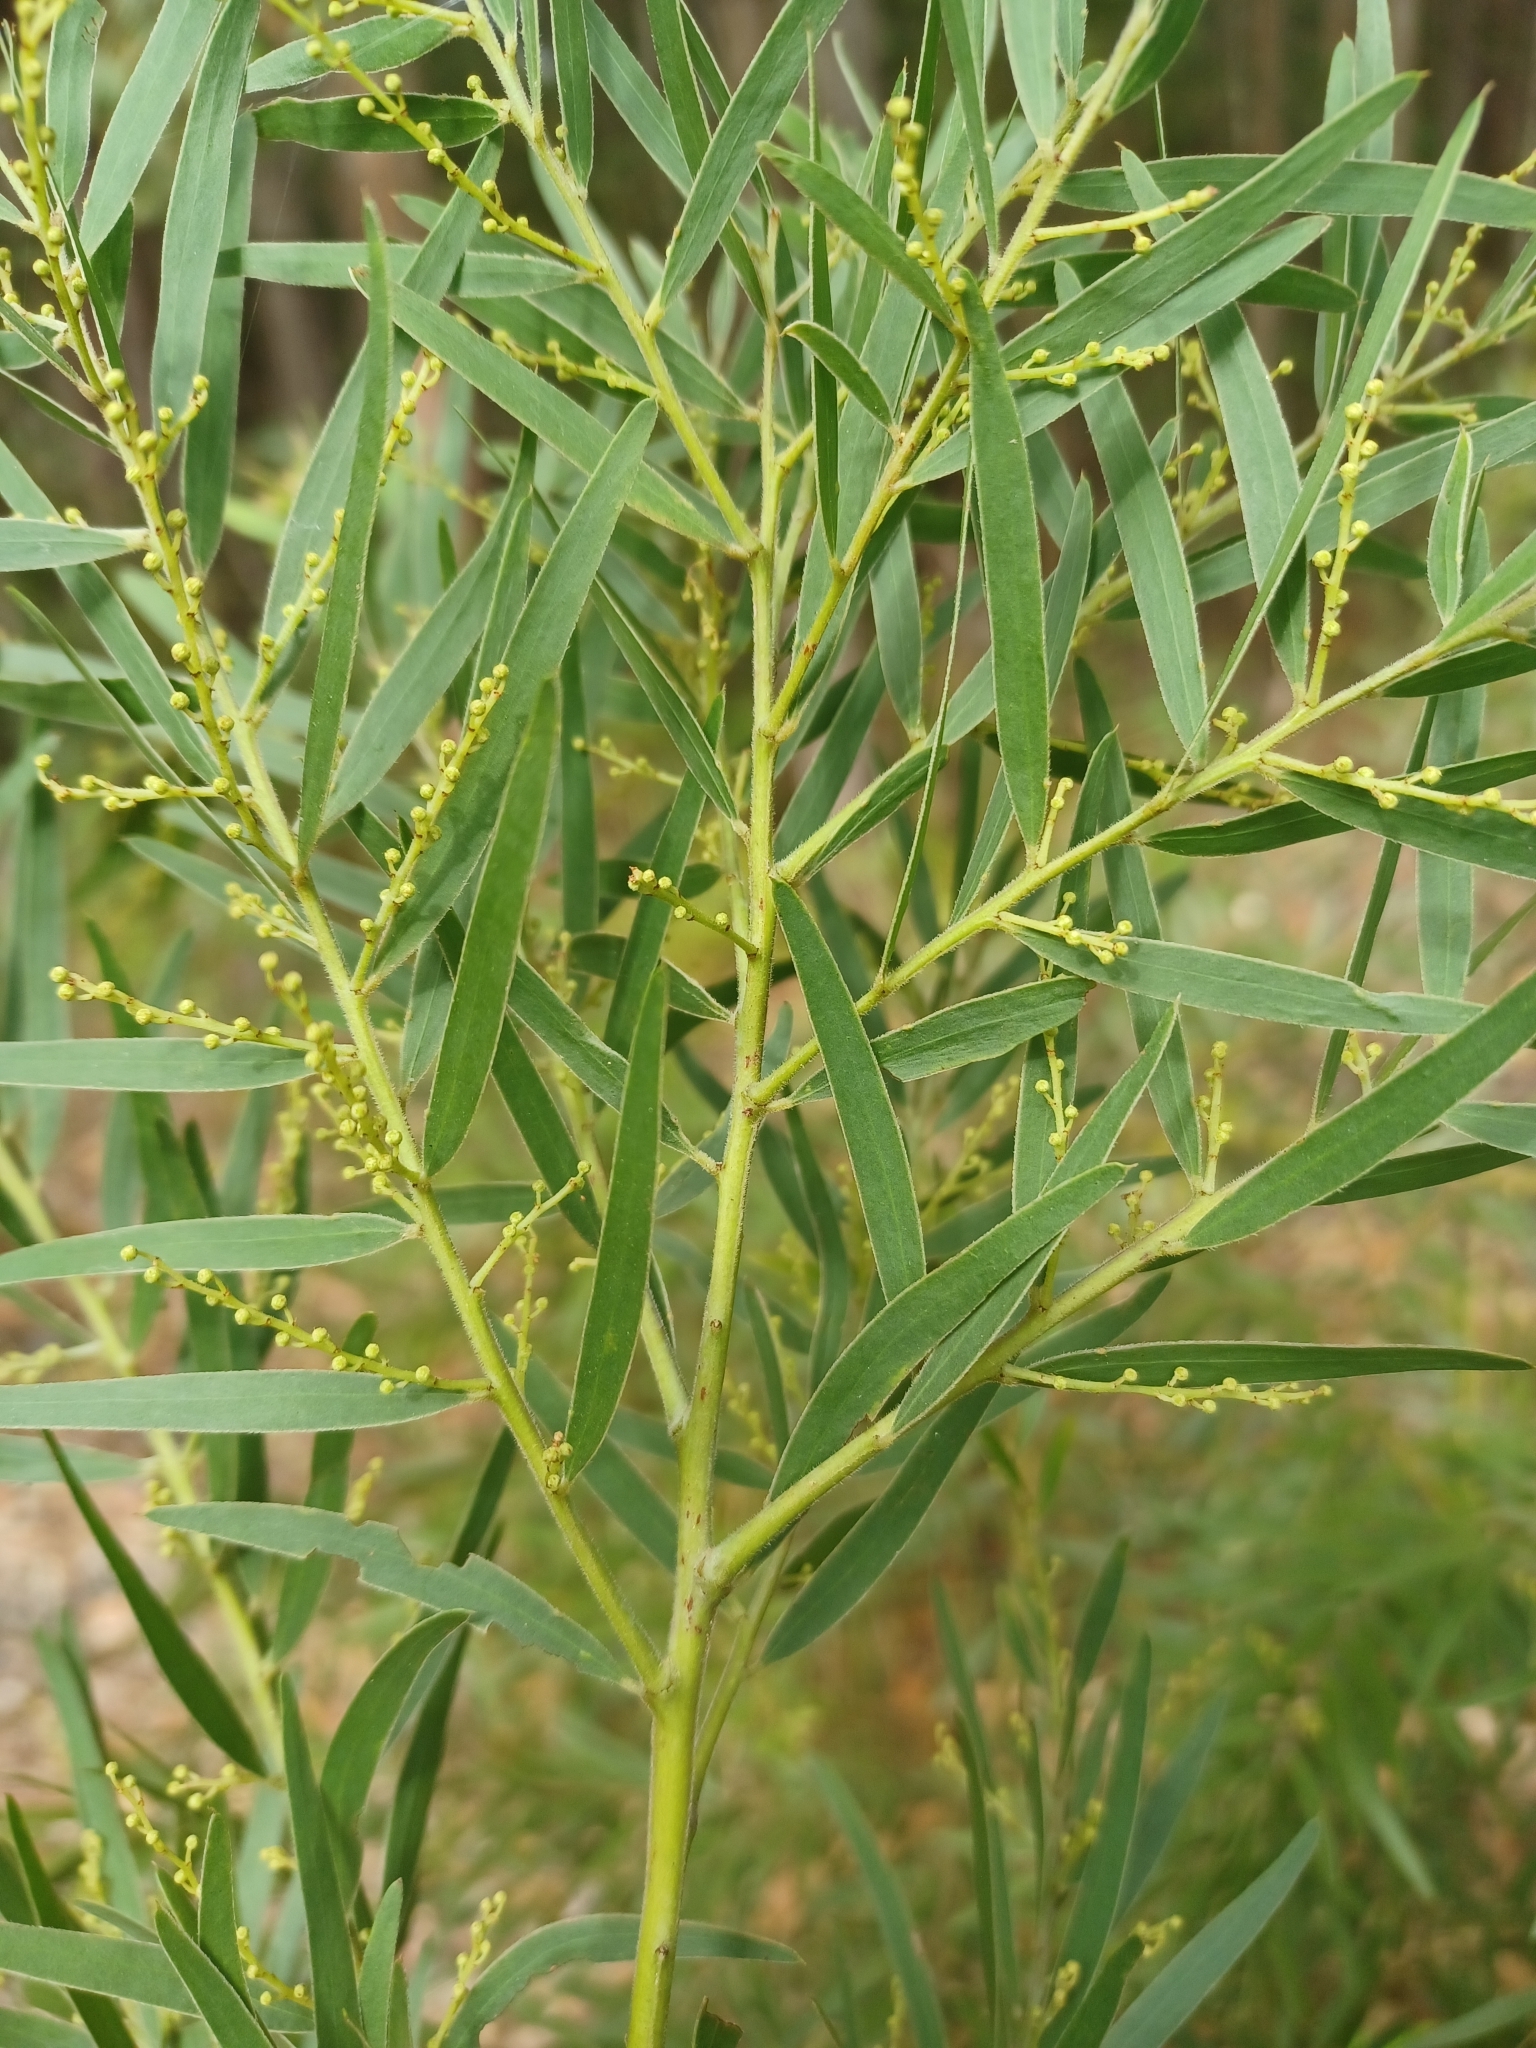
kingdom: Plantae
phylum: Tracheophyta
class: Magnoliopsida
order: Fabales
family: Fabaceae
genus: Acacia
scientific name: Acacia fimbriata
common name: Brisbane golden wattle
